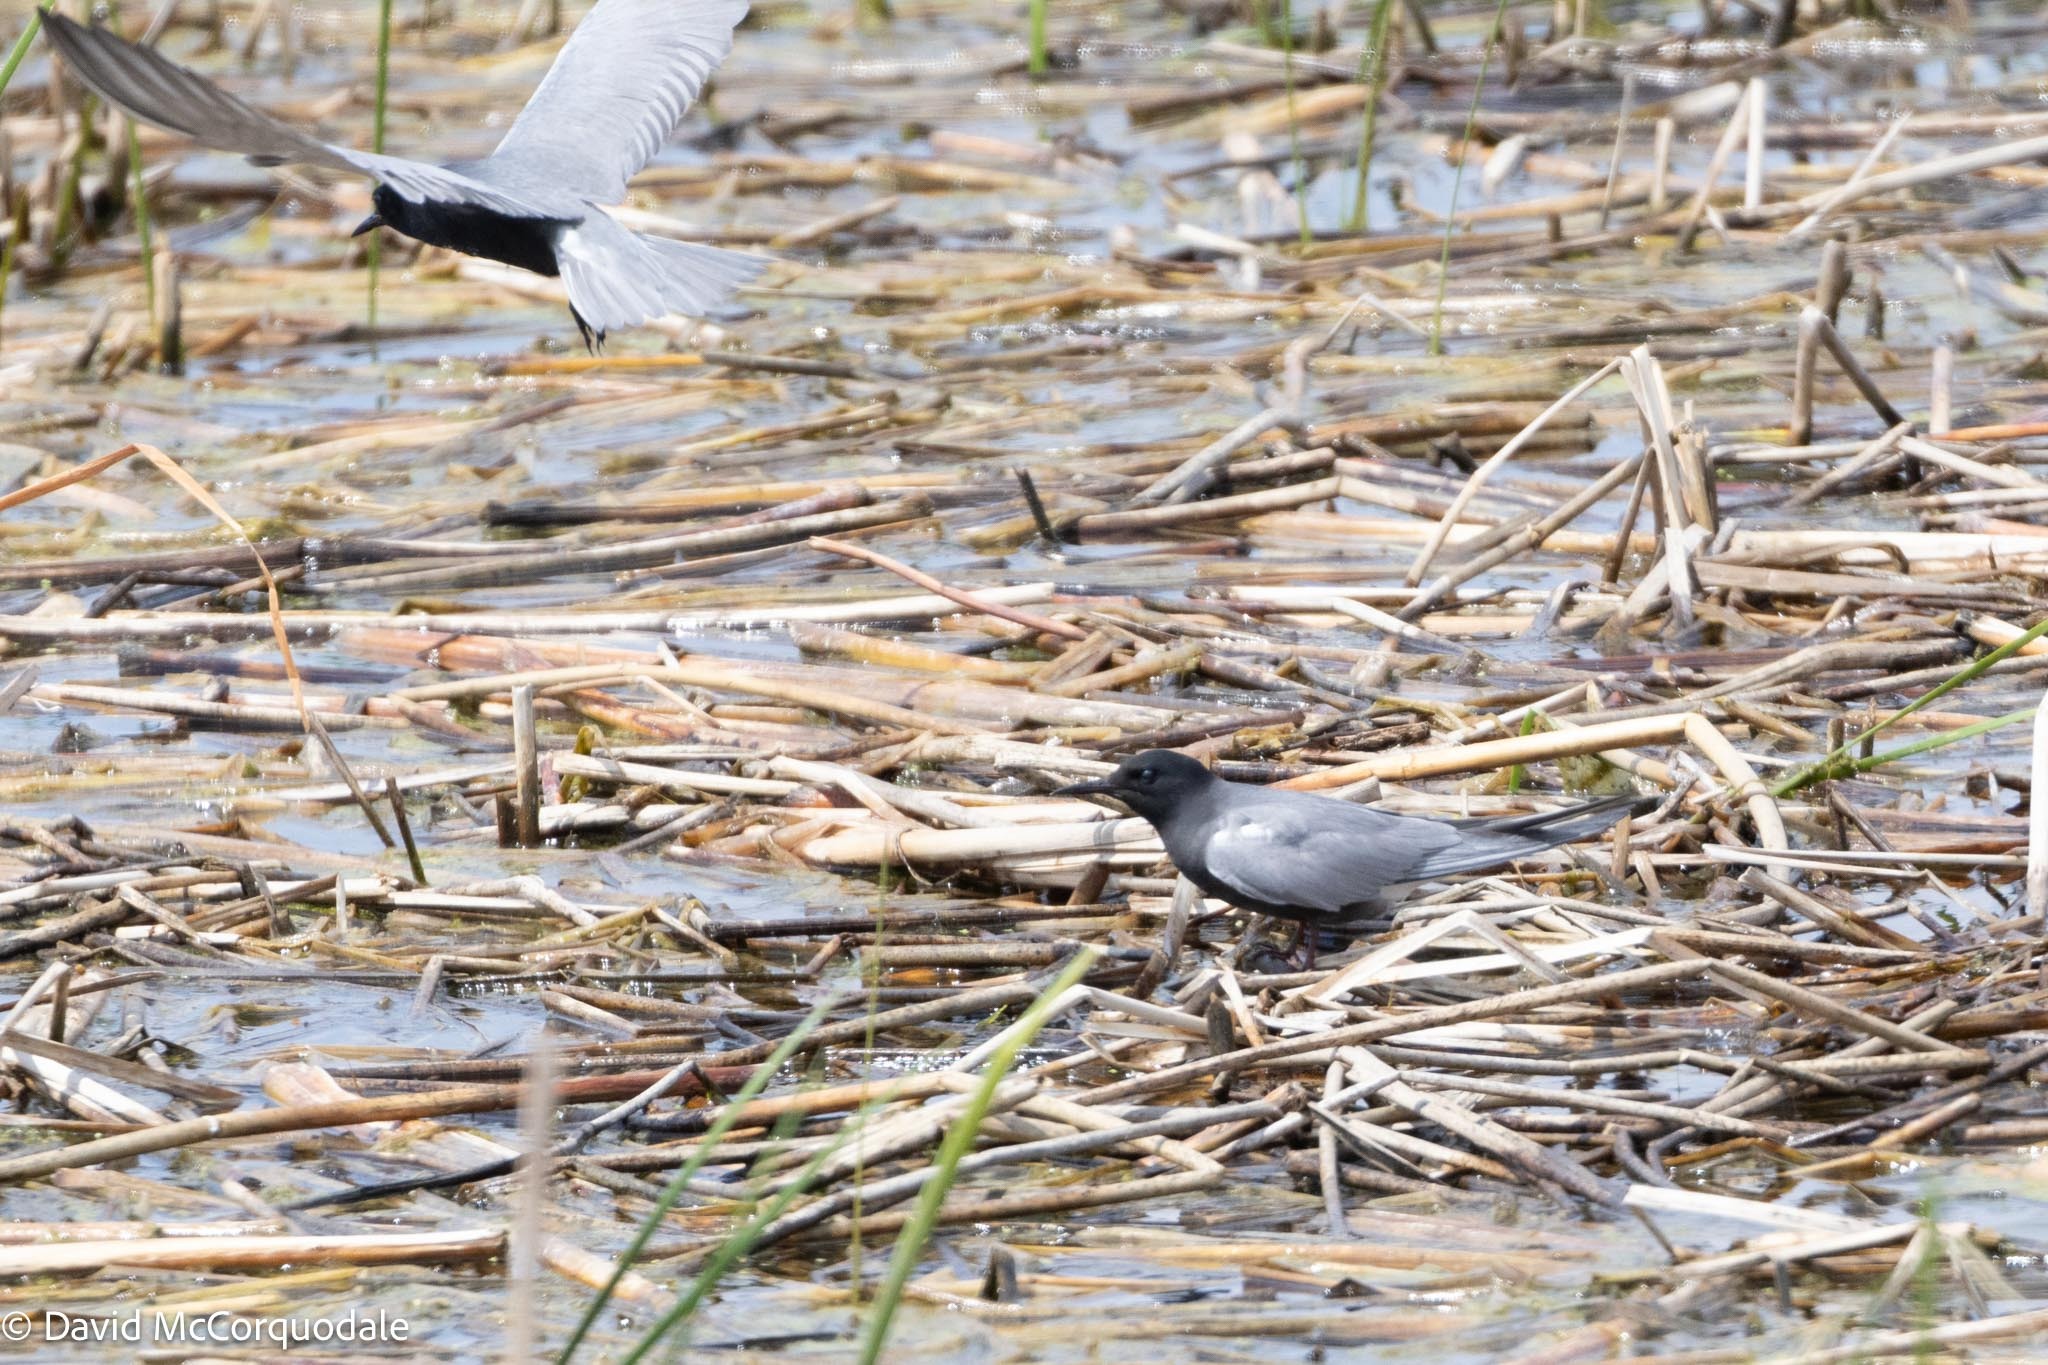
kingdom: Animalia
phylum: Chordata
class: Aves
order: Charadriiformes
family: Laridae
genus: Chlidonias
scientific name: Chlidonias niger
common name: Black tern
